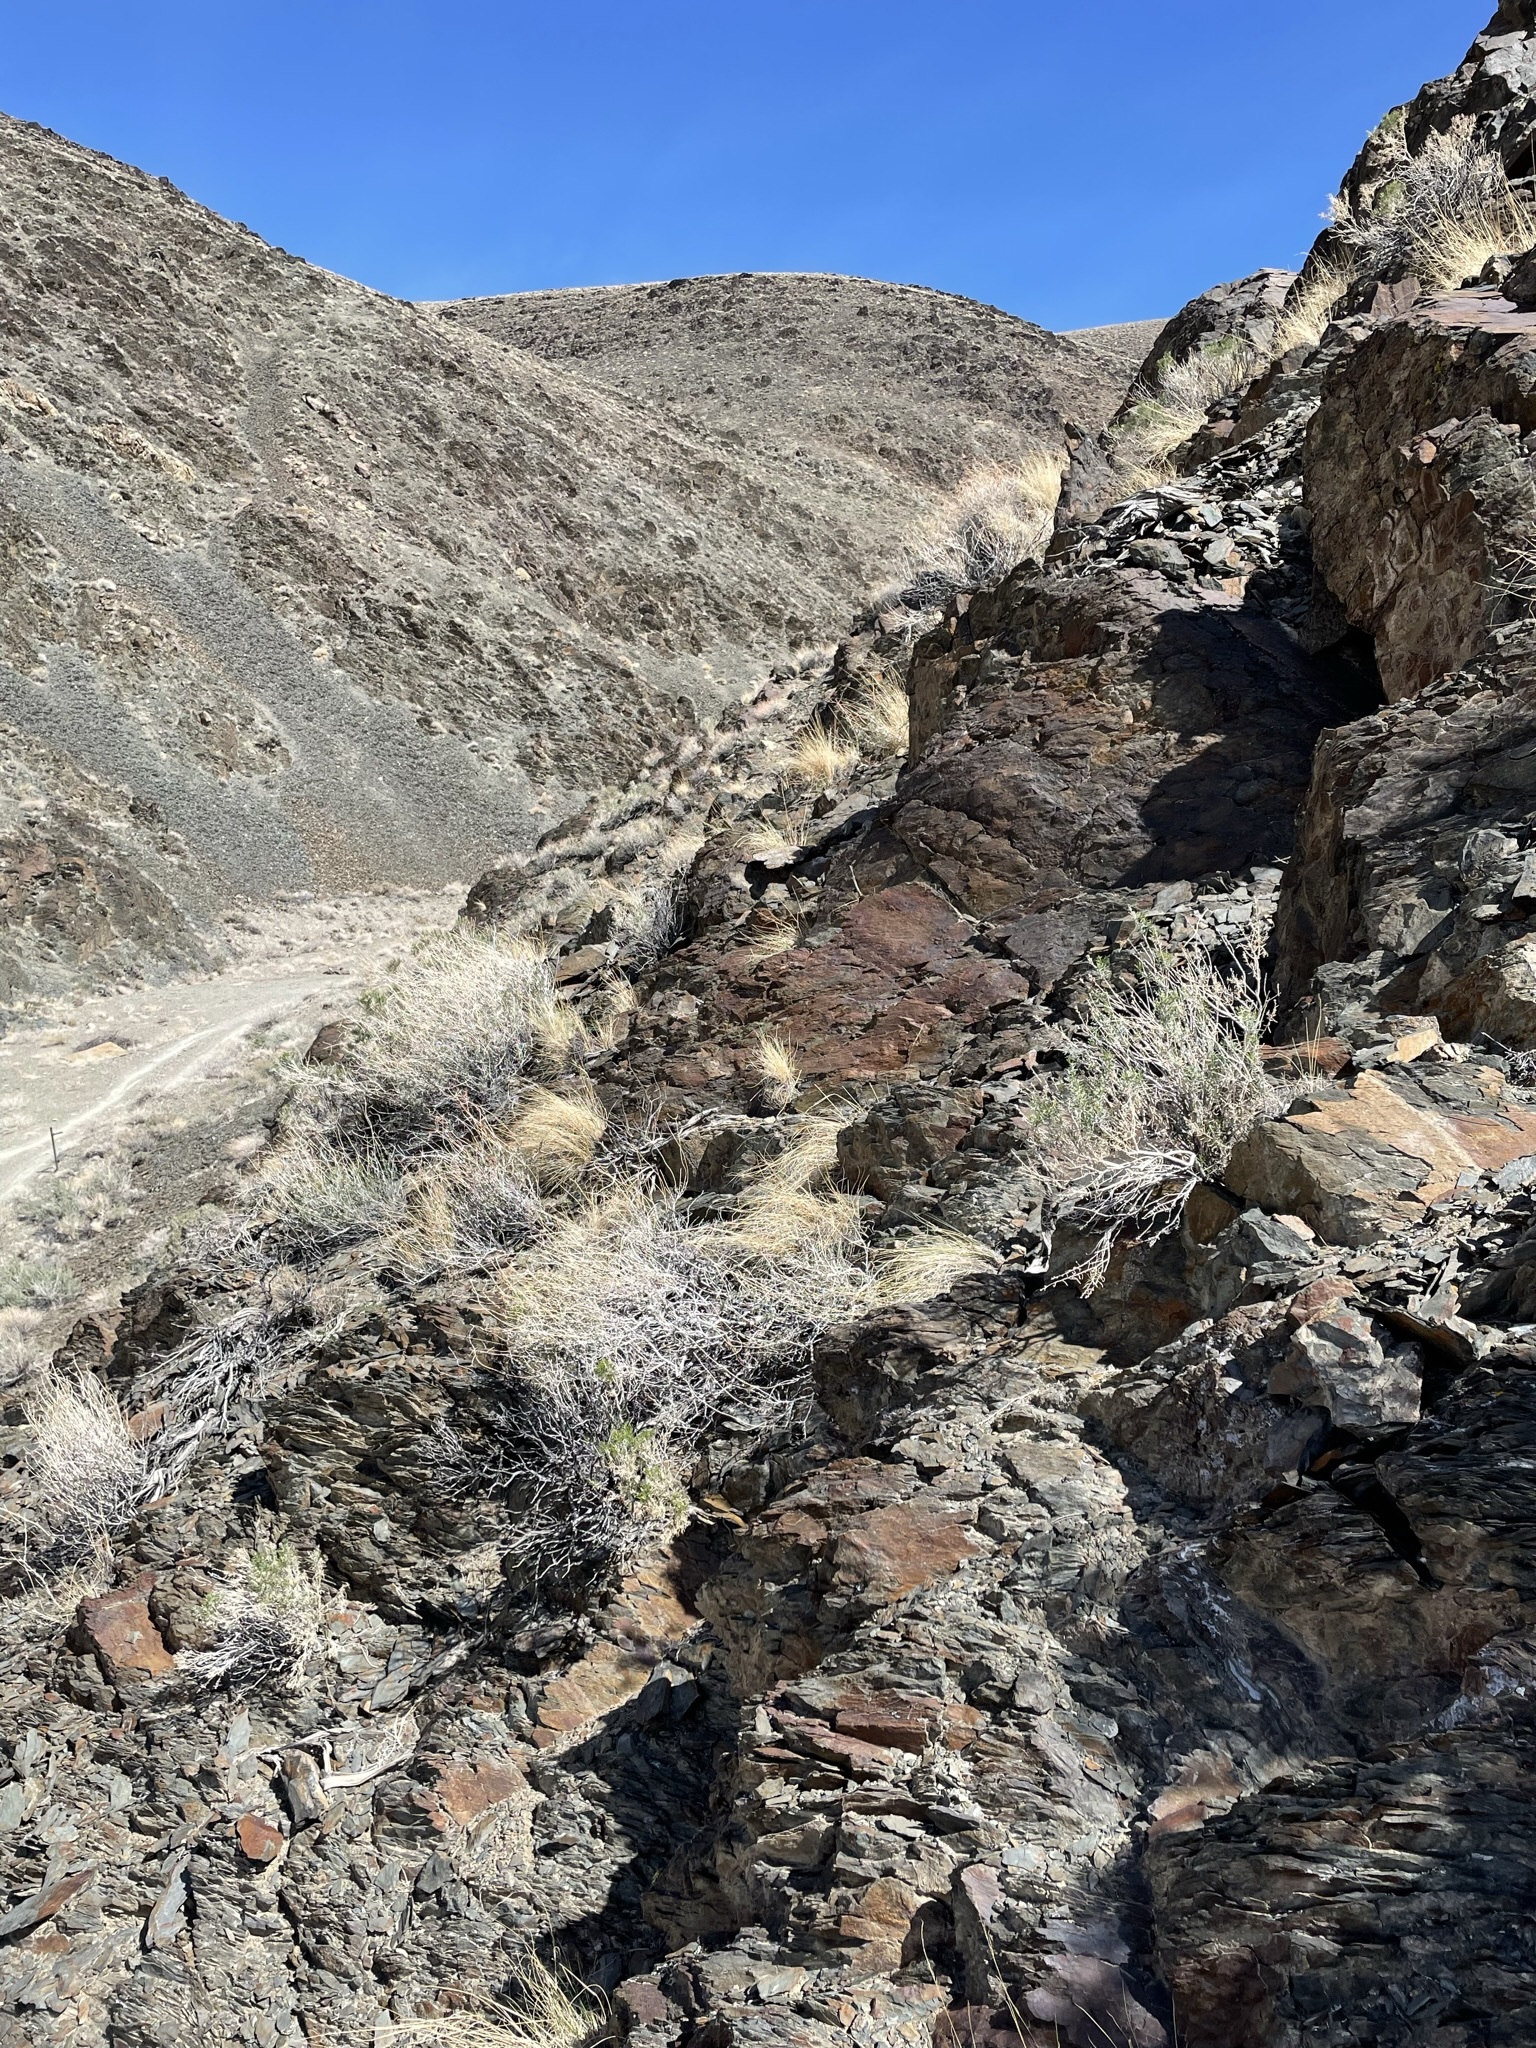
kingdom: Plantae
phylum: Tracheophyta
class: Magnoliopsida
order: Apiales
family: Apiaceae
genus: Aulospermum
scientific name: Aulospermum aboriginum
